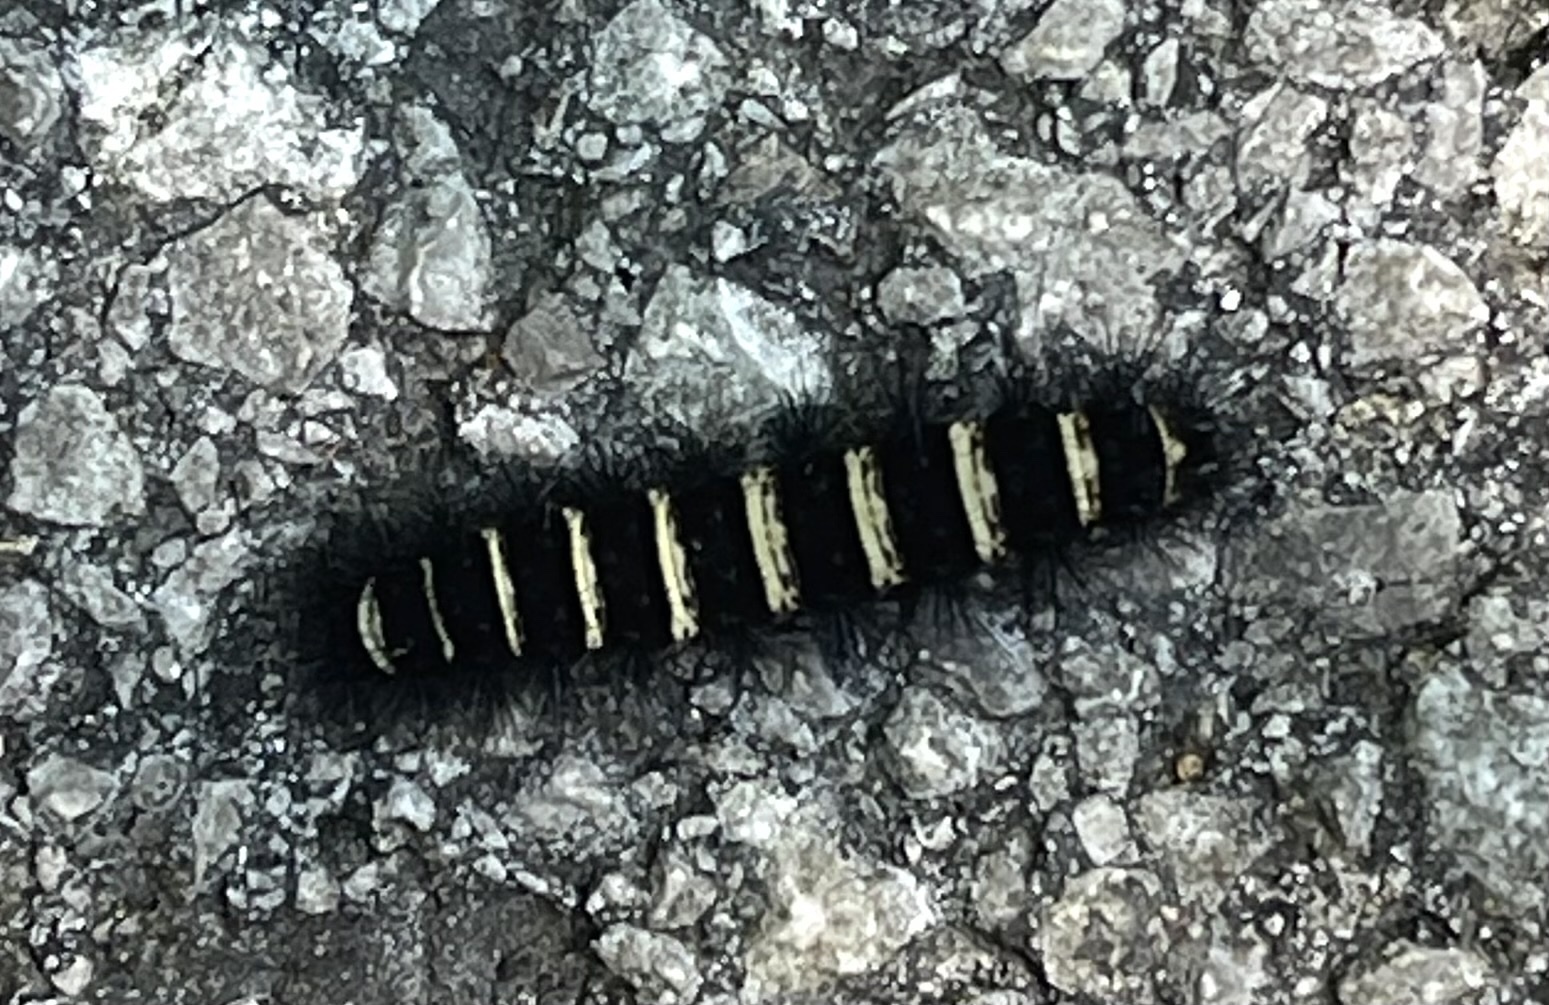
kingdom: Animalia
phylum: Arthropoda
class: Insecta
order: Lepidoptera
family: Erebidae
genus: Spilosoma
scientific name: Spilosoma congrua
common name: Agreeable tiger moth
